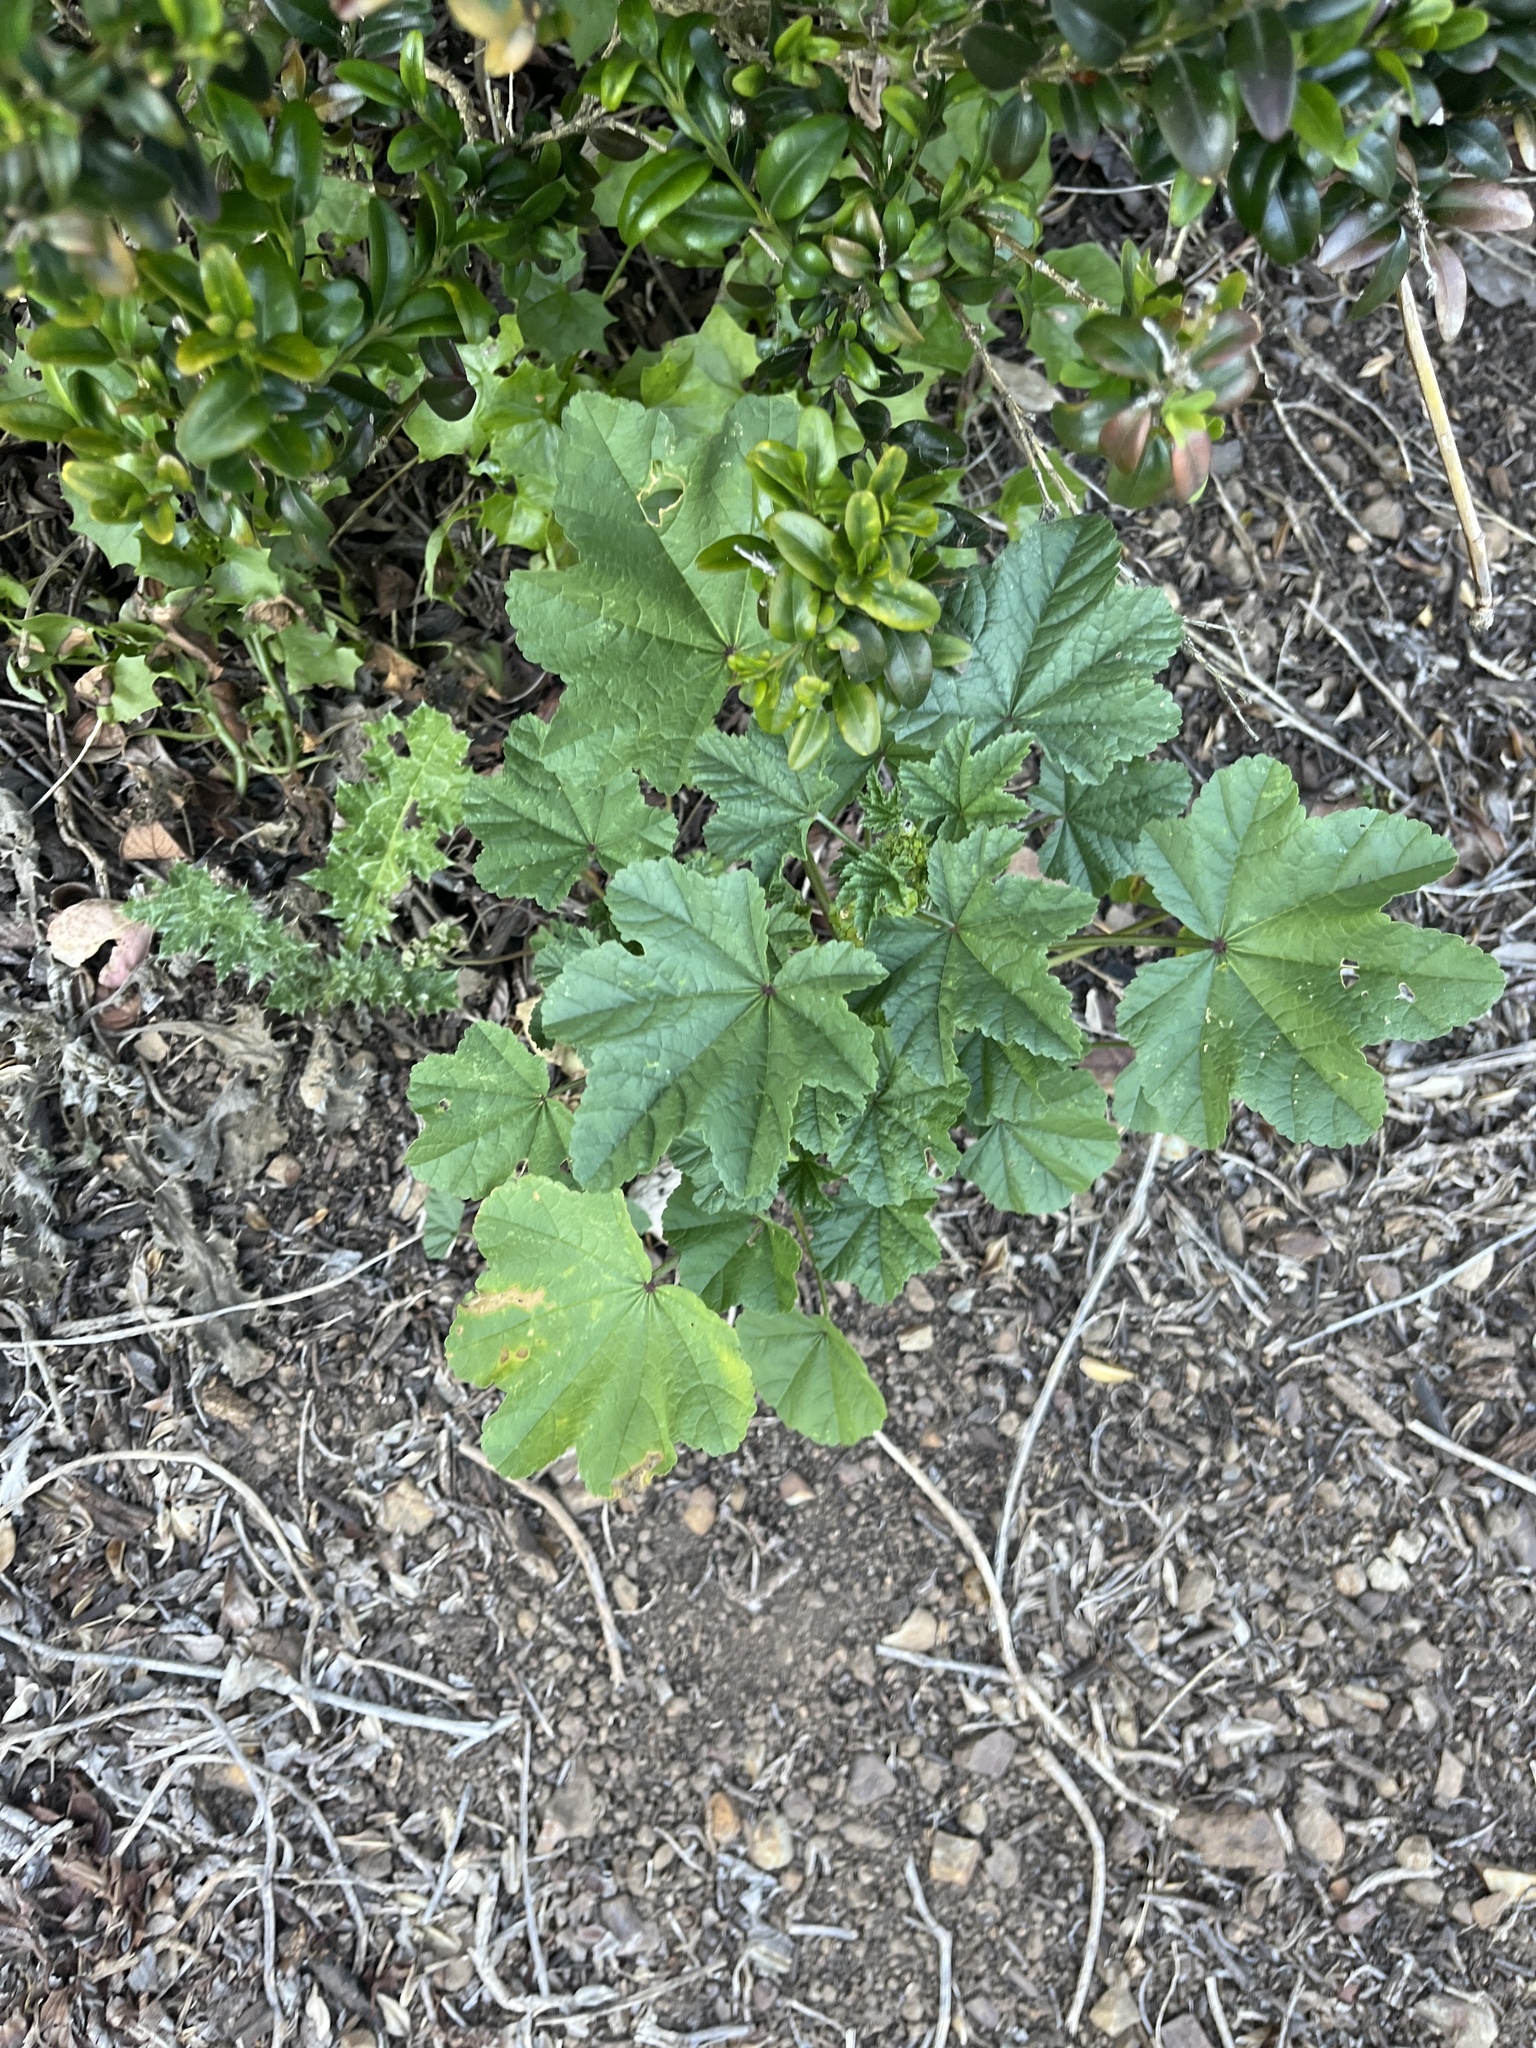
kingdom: Plantae
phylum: Tracheophyta
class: Magnoliopsida
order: Malvales
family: Malvaceae
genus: Malva
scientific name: Malva
